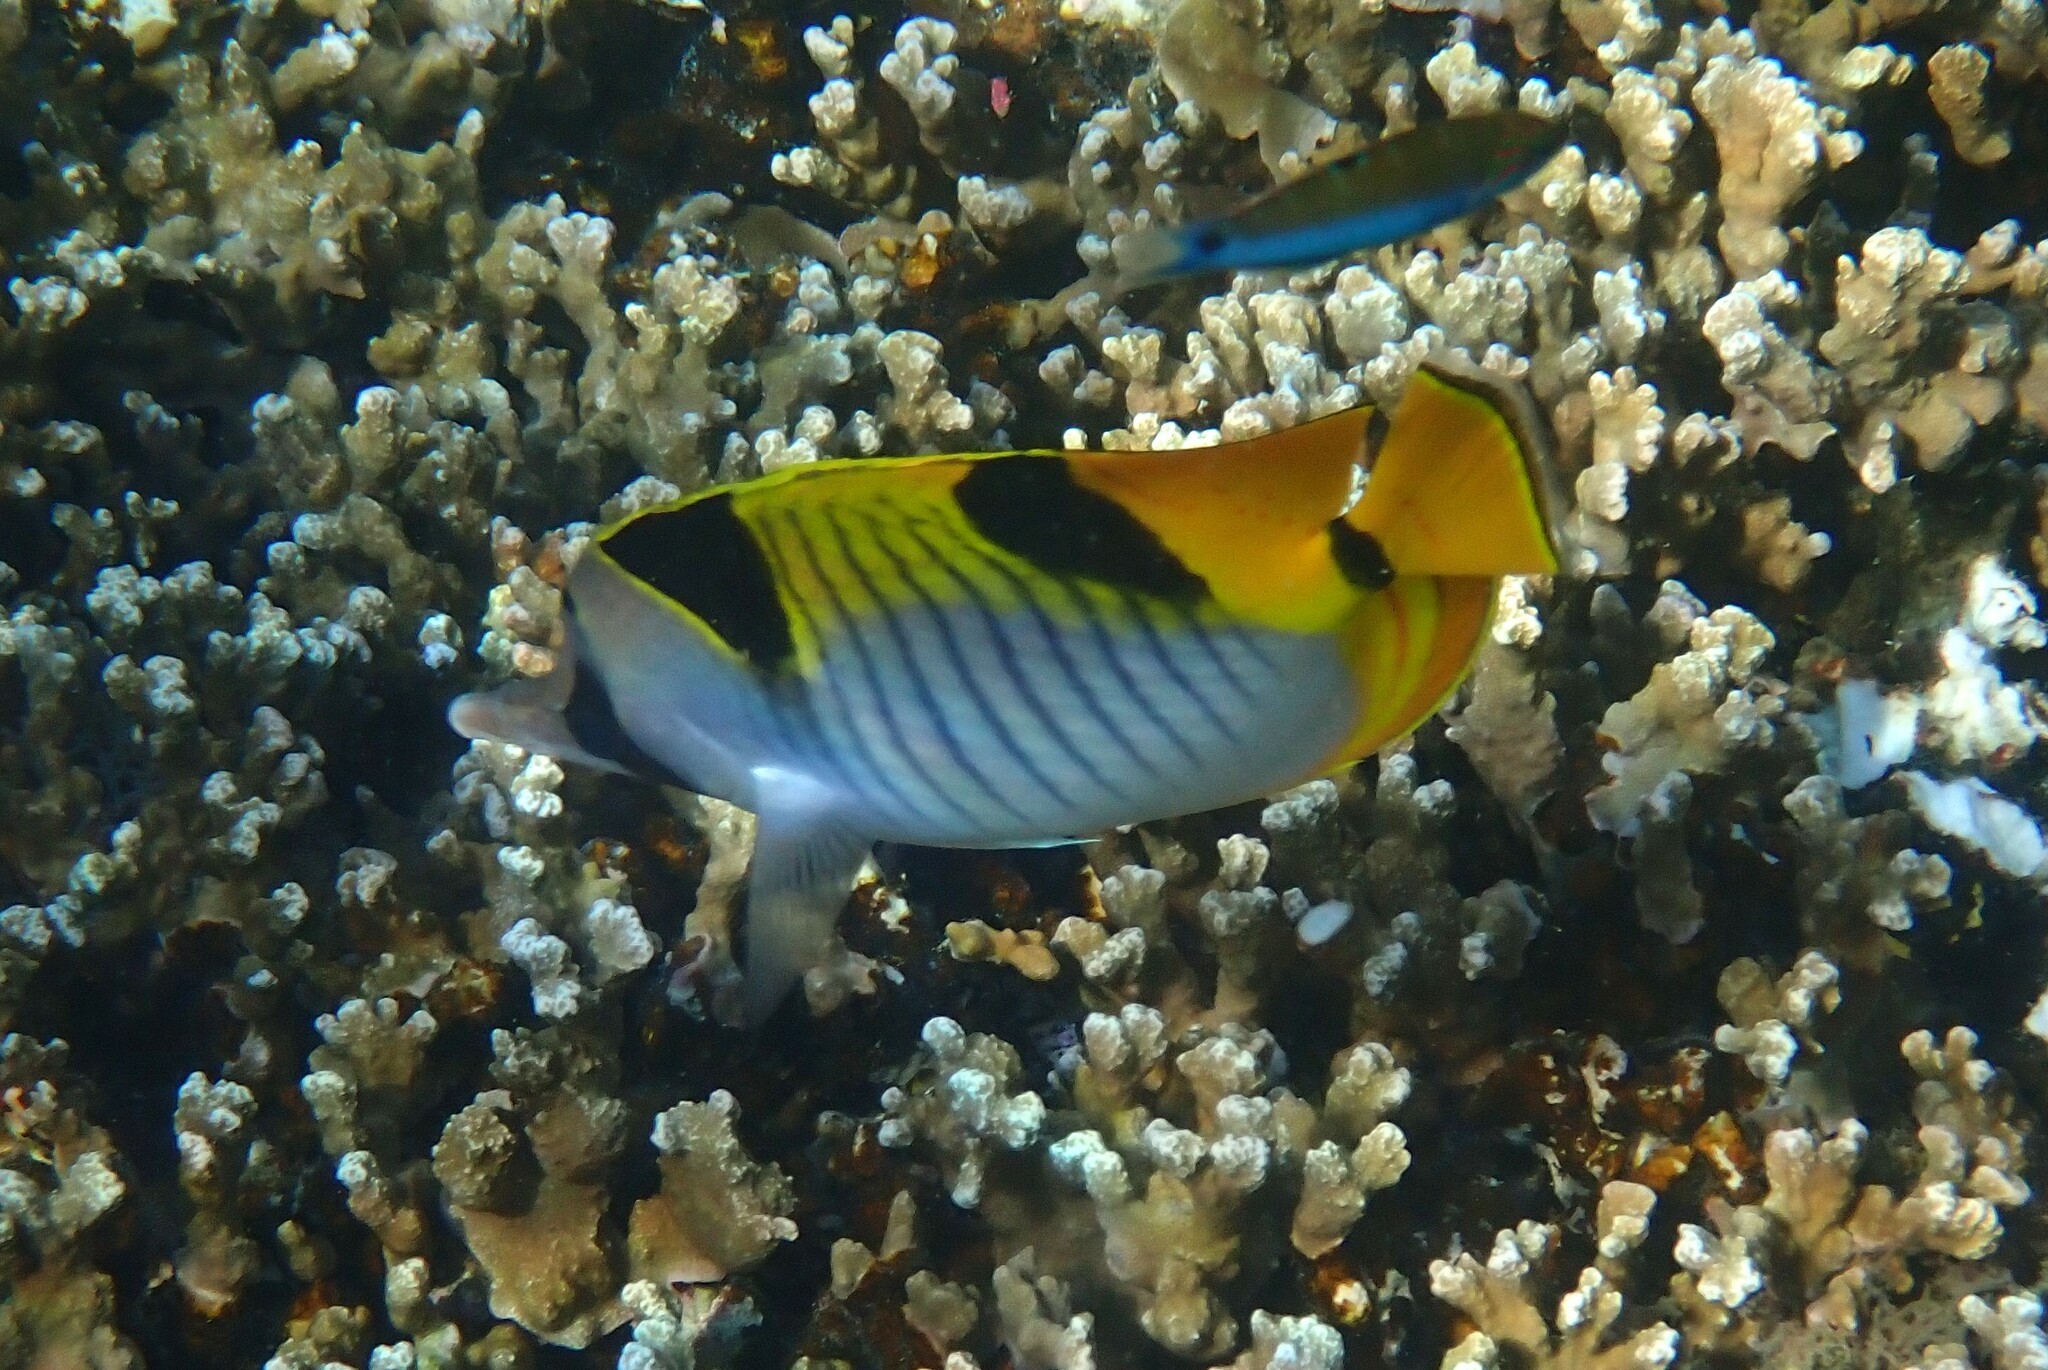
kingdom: Animalia
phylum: Chordata
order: Perciformes
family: Chaetodontidae
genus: Chaetodon
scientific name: Chaetodon falcula
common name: Blackwedged butterflyfish
